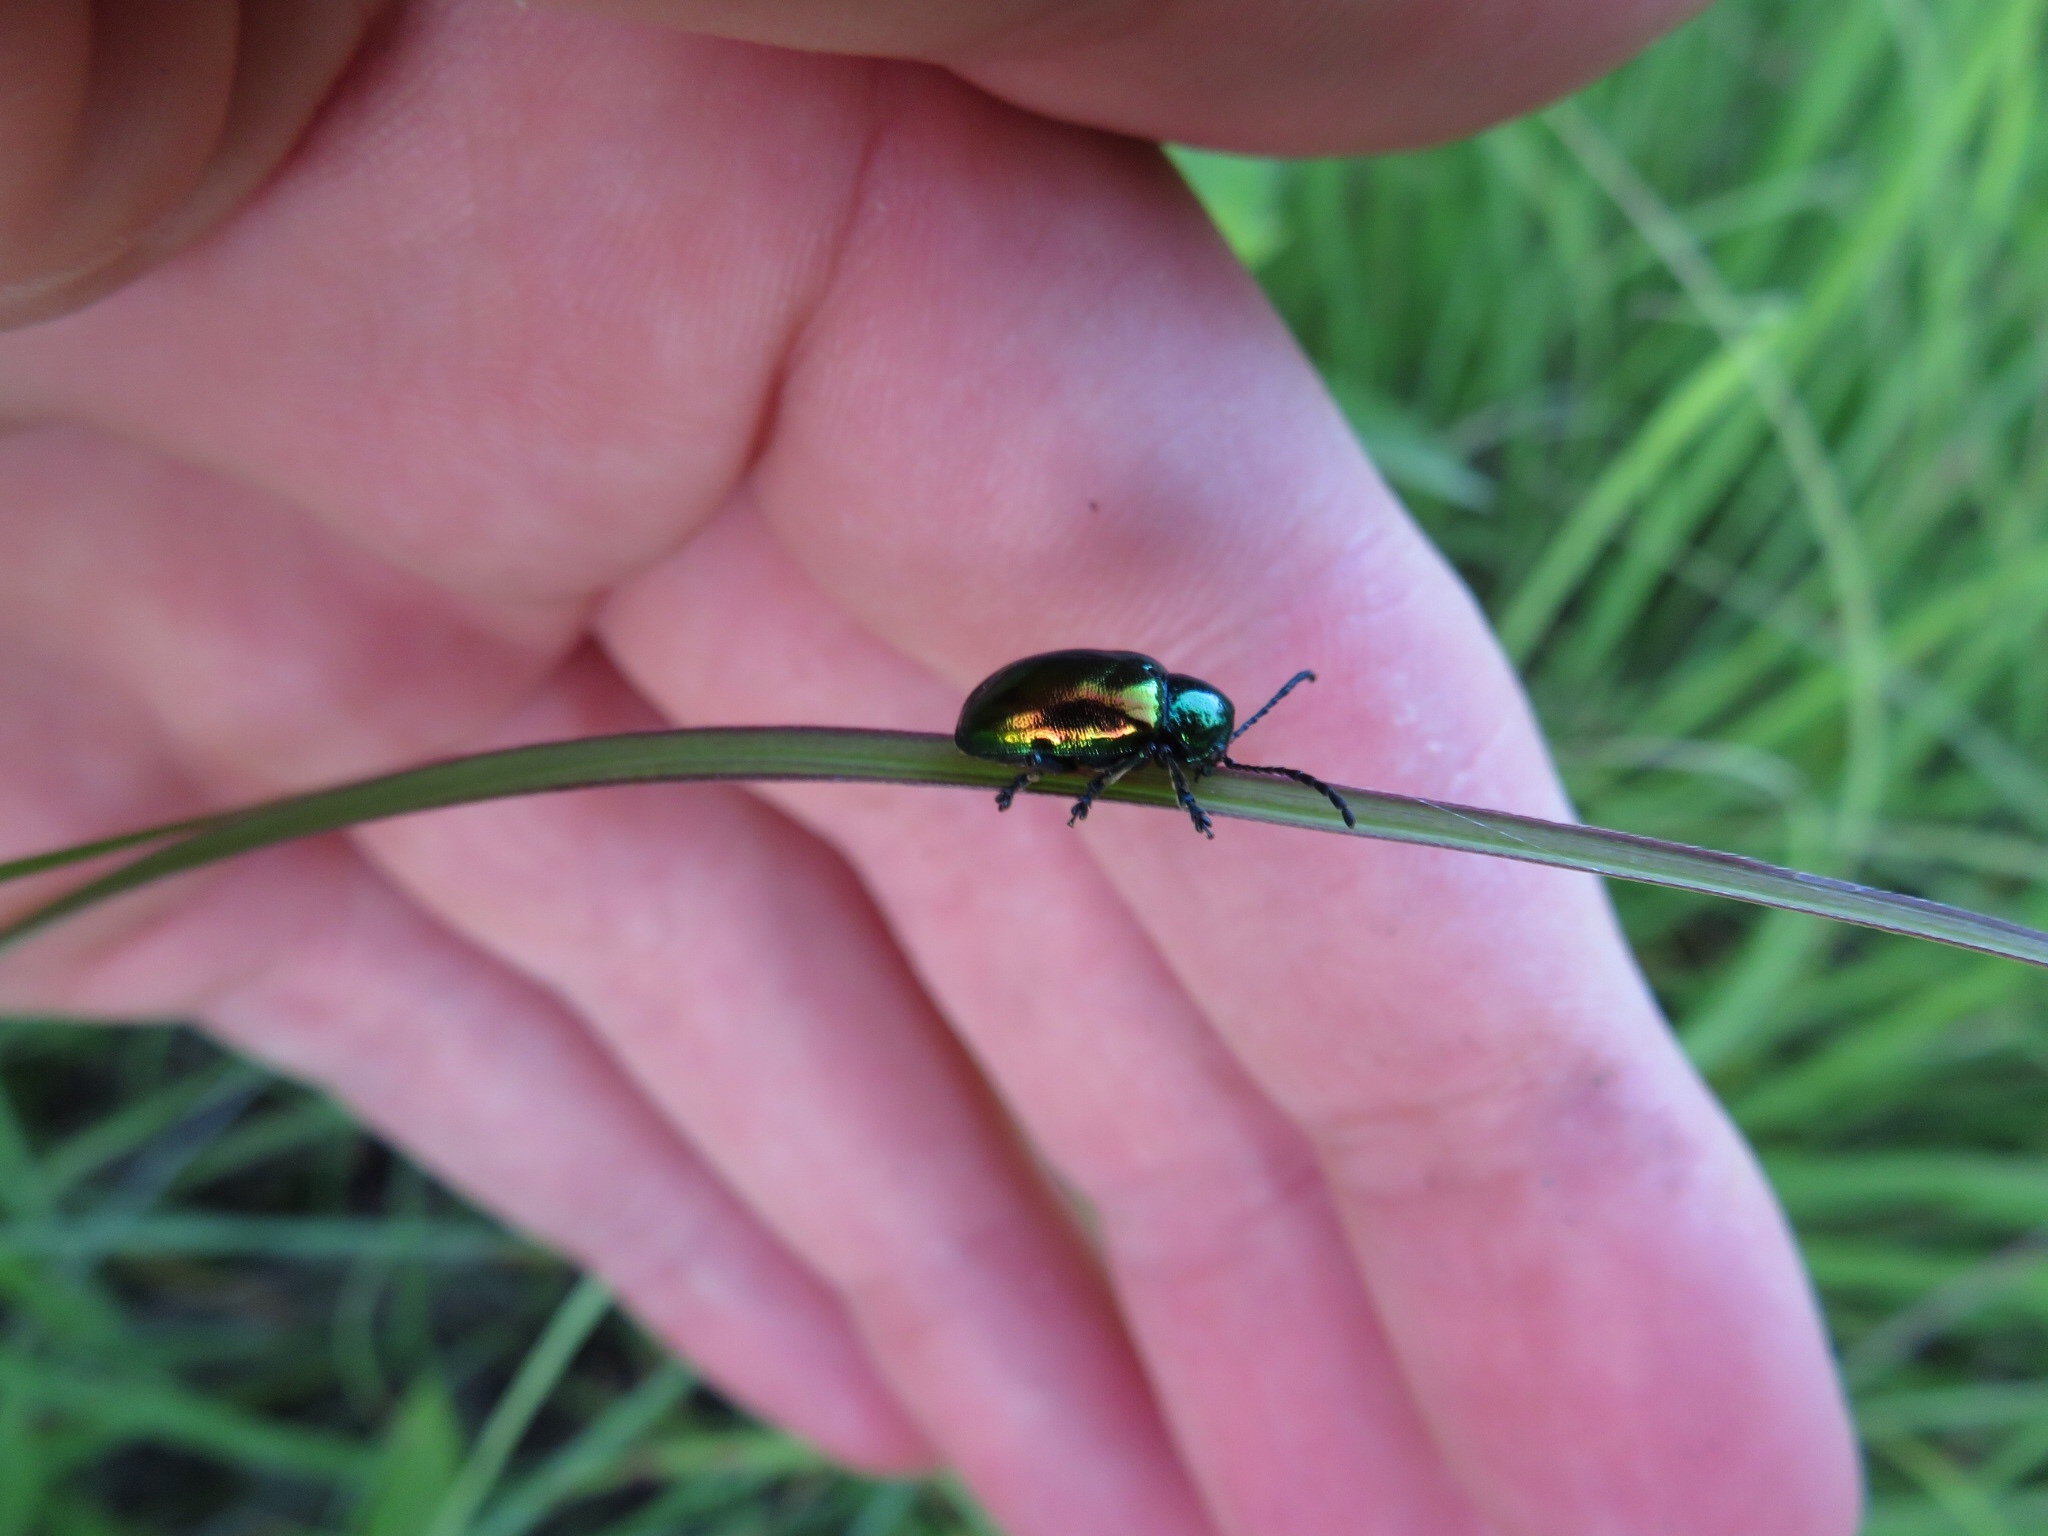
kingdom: Animalia
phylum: Arthropoda
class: Insecta
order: Coleoptera
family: Chrysomelidae
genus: Chrysochus
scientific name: Chrysochus auratus
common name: Dogbane leaf beetle
